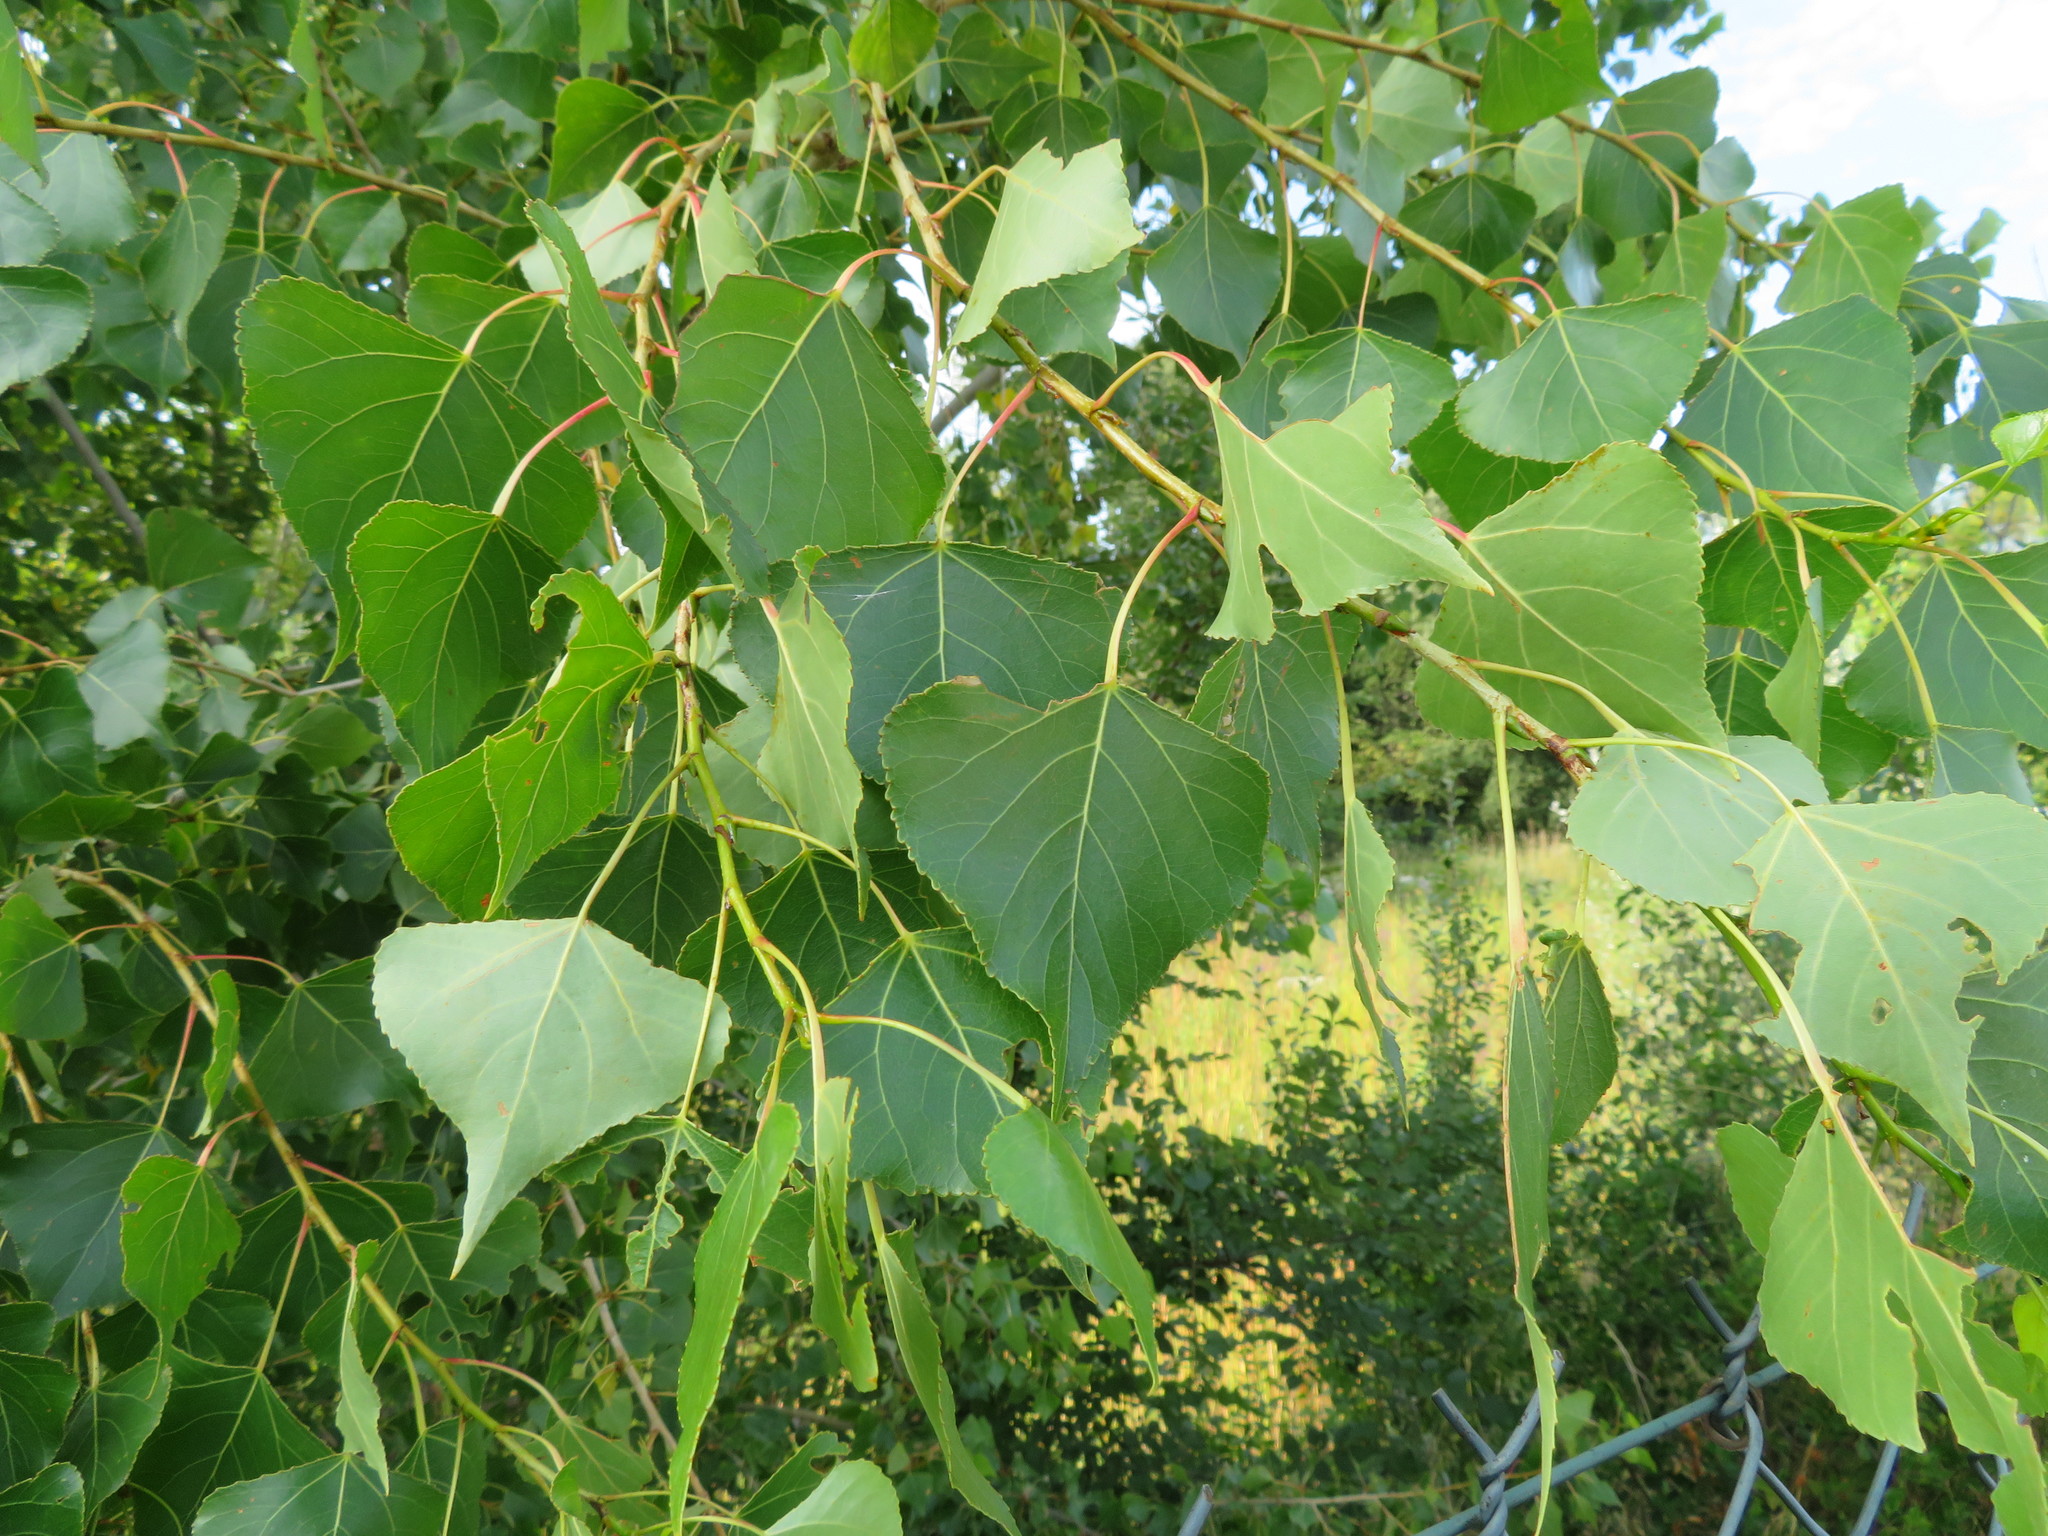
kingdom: Plantae
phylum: Tracheophyta
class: Magnoliopsida
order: Malpighiales
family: Salicaceae
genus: Populus
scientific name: Populus nigra
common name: Black poplar
